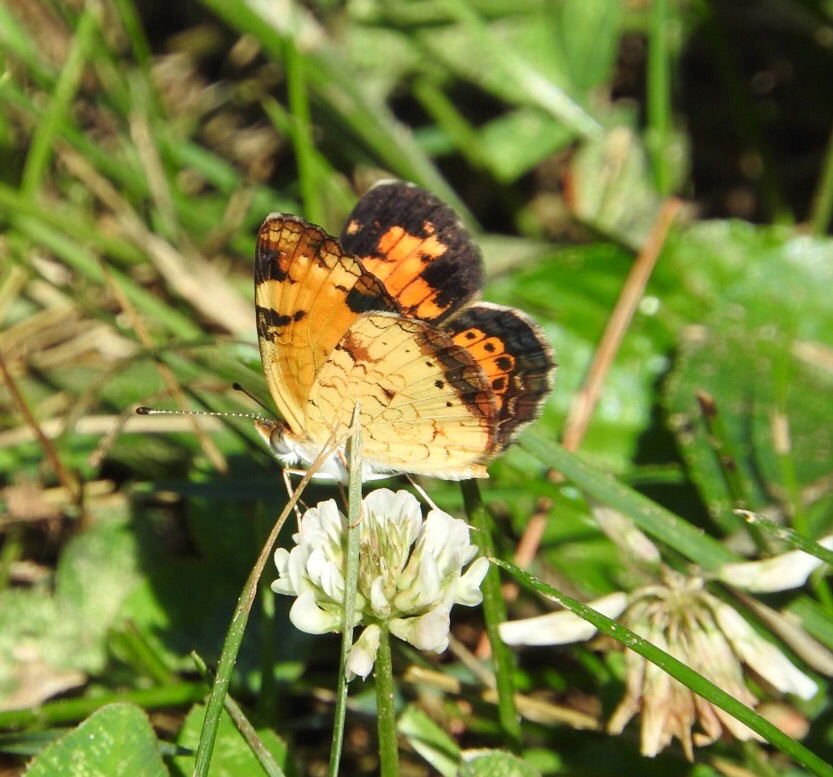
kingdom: Animalia
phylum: Arthropoda
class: Insecta
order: Lepidoptera
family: Nymphalidae
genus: Phyciodes
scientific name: Phyciodes tharos
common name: Pearl crescent
